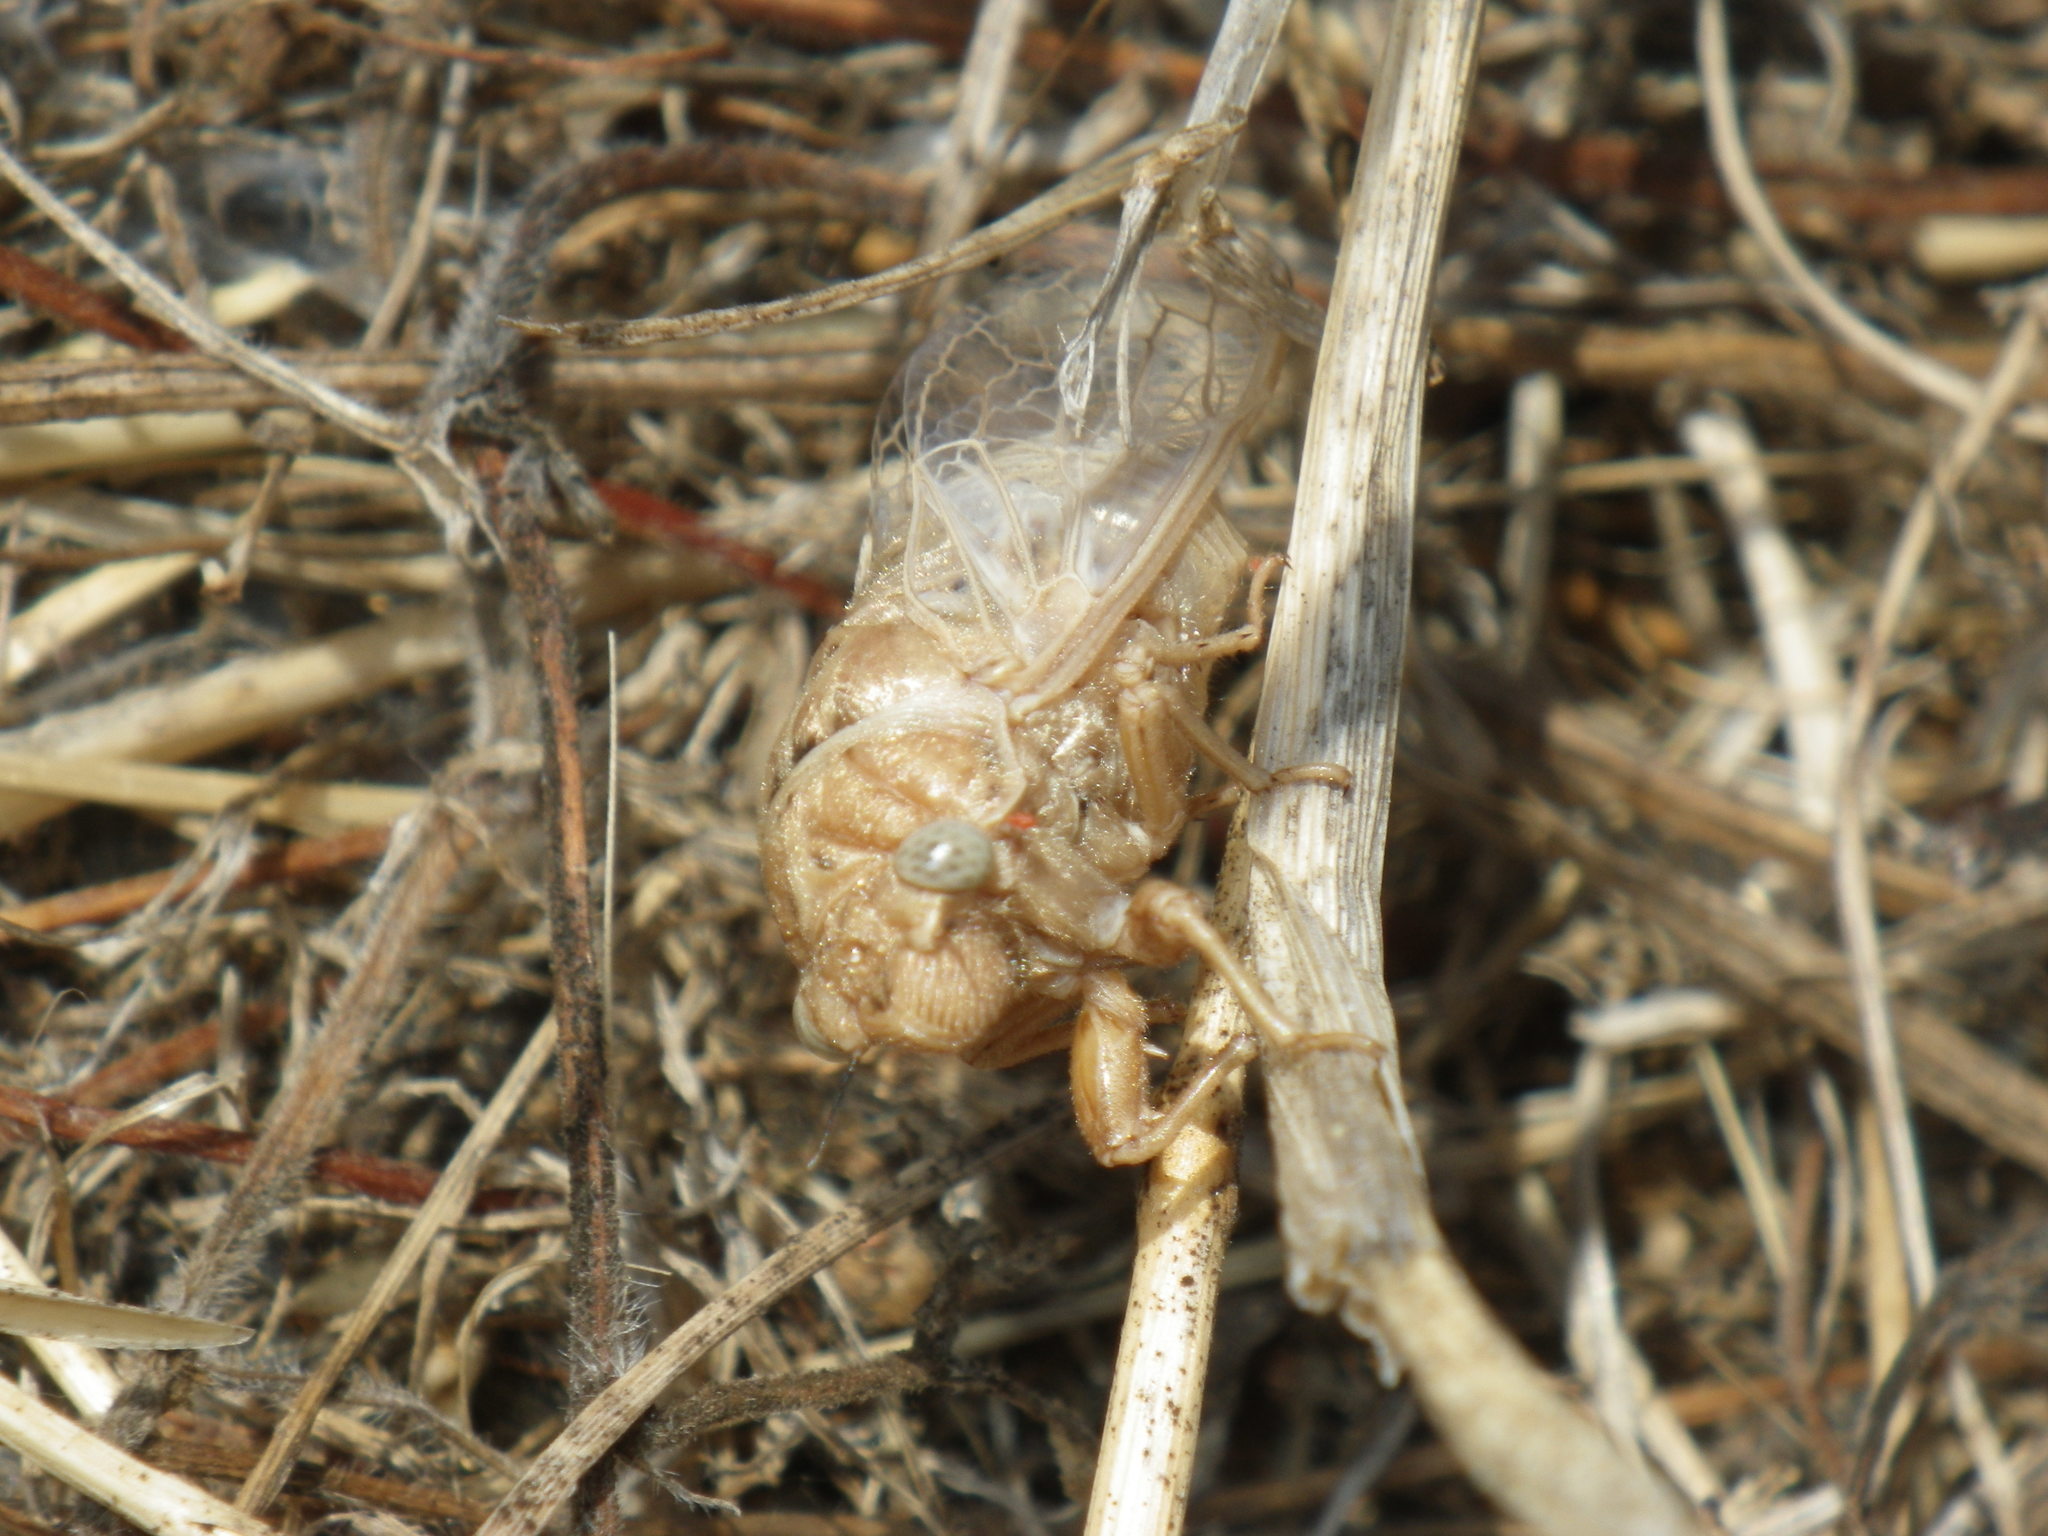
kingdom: Animalia
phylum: Arthropoda
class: Insecta
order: Hemiptera
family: Cicadidae
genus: Tibicinoides
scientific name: Tibicinoides
